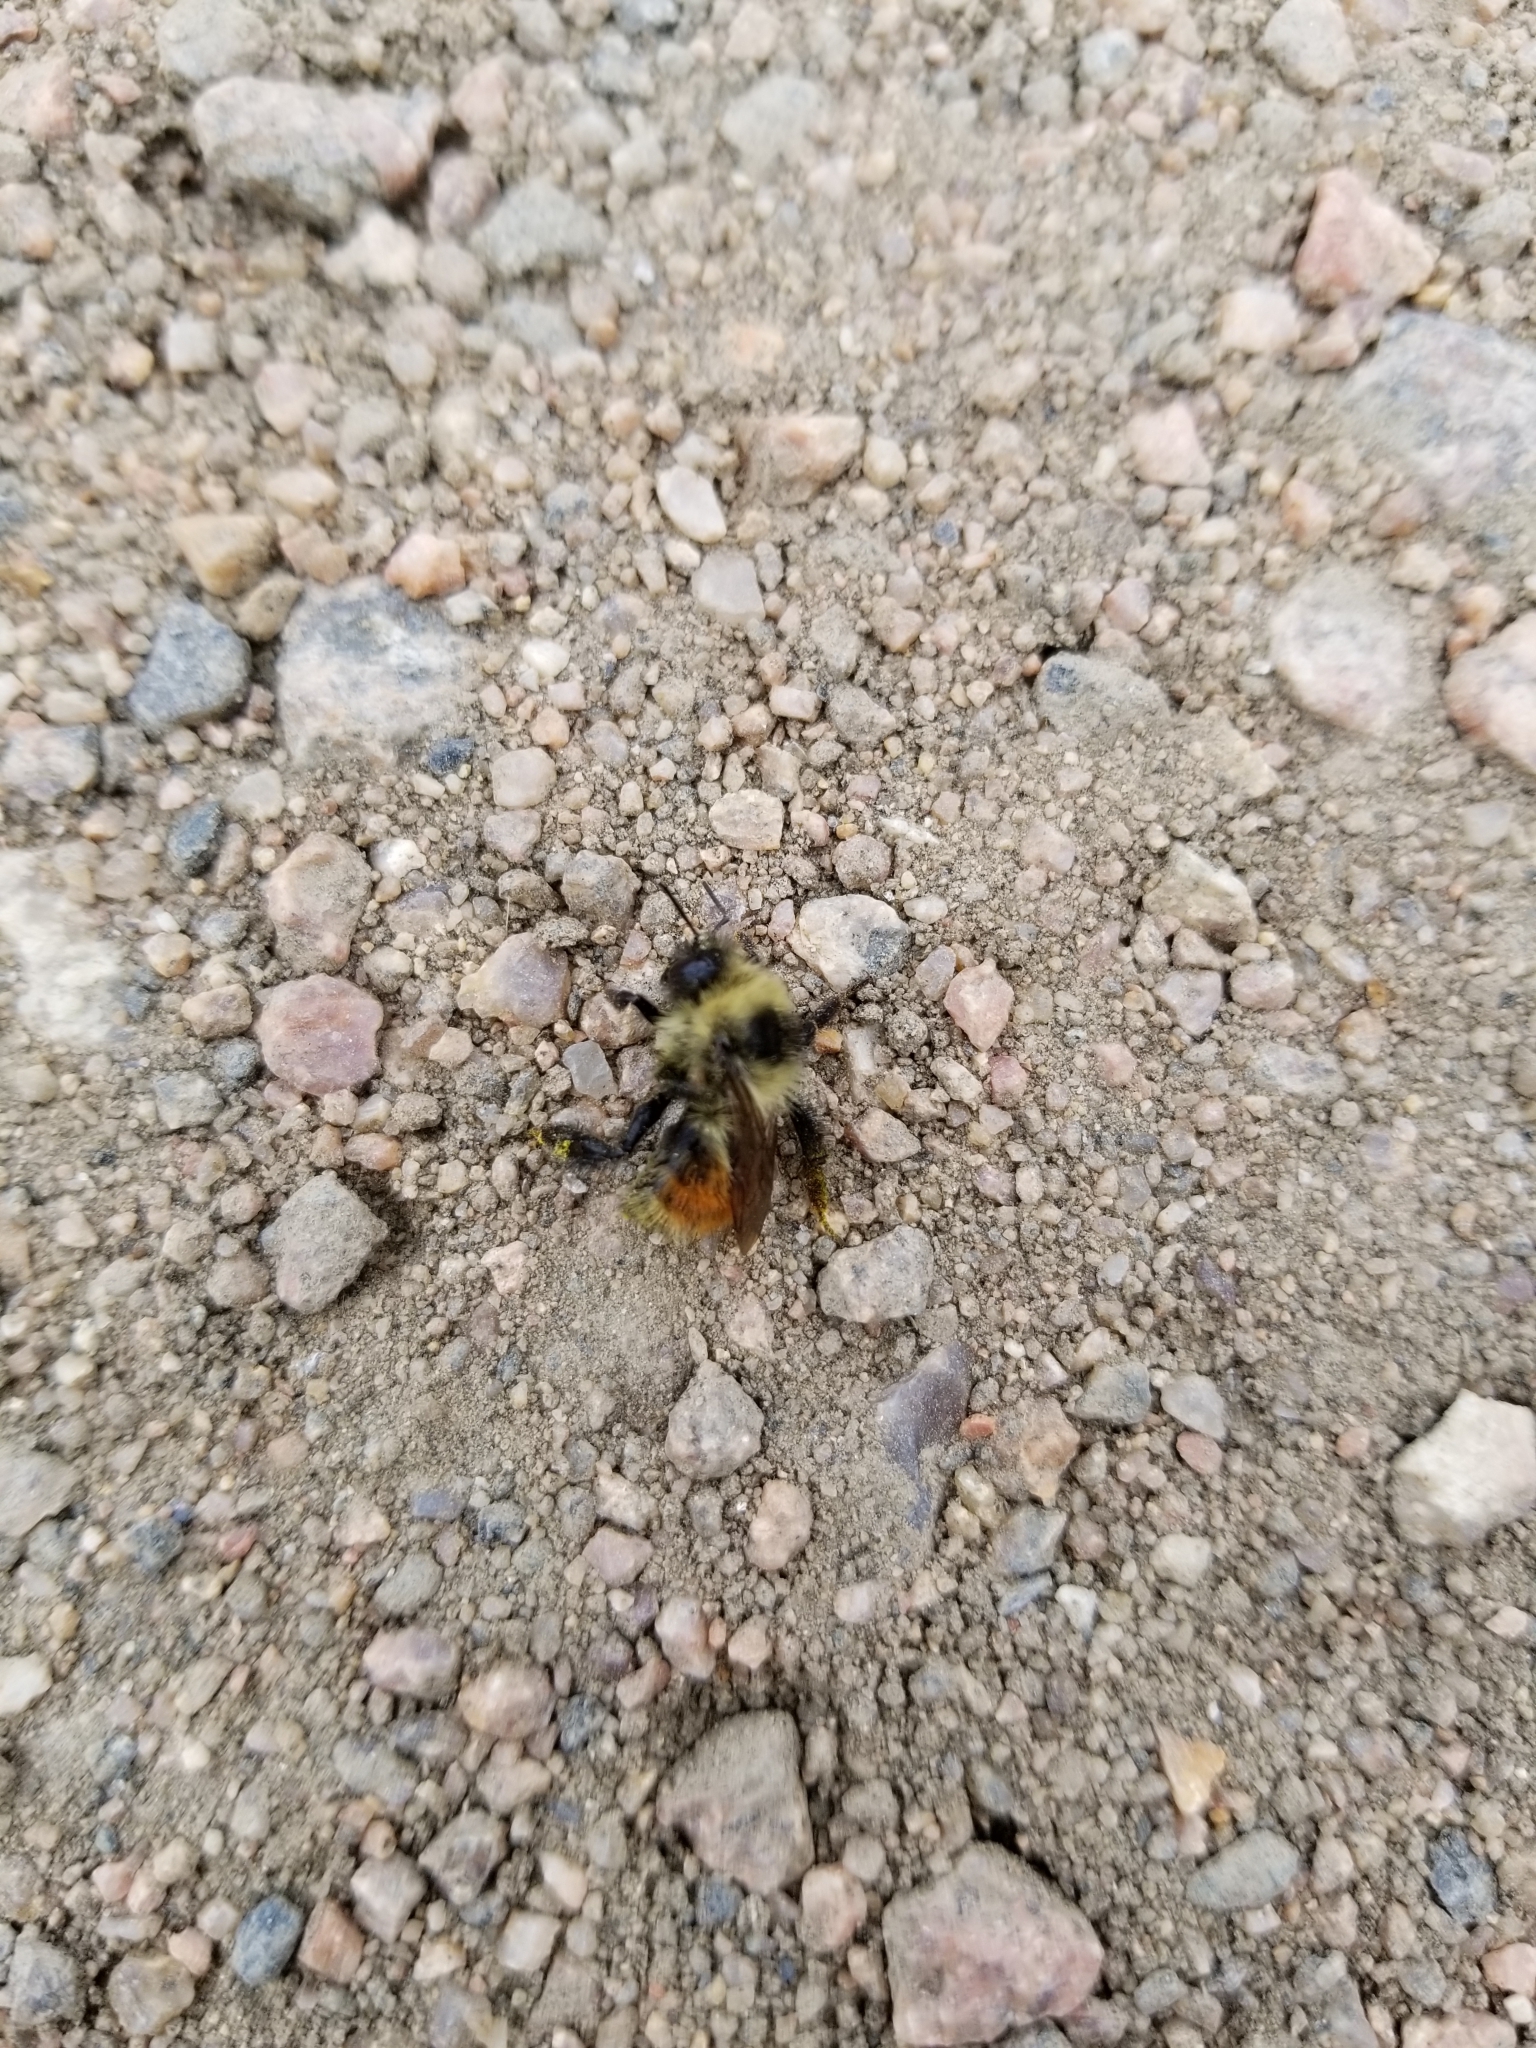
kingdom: Animalia
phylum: Arthropoda
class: Insecta
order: Hymenoptera
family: Apidae
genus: Bombus
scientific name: Bombus rufocinctus
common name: Red-belted bumble bee
